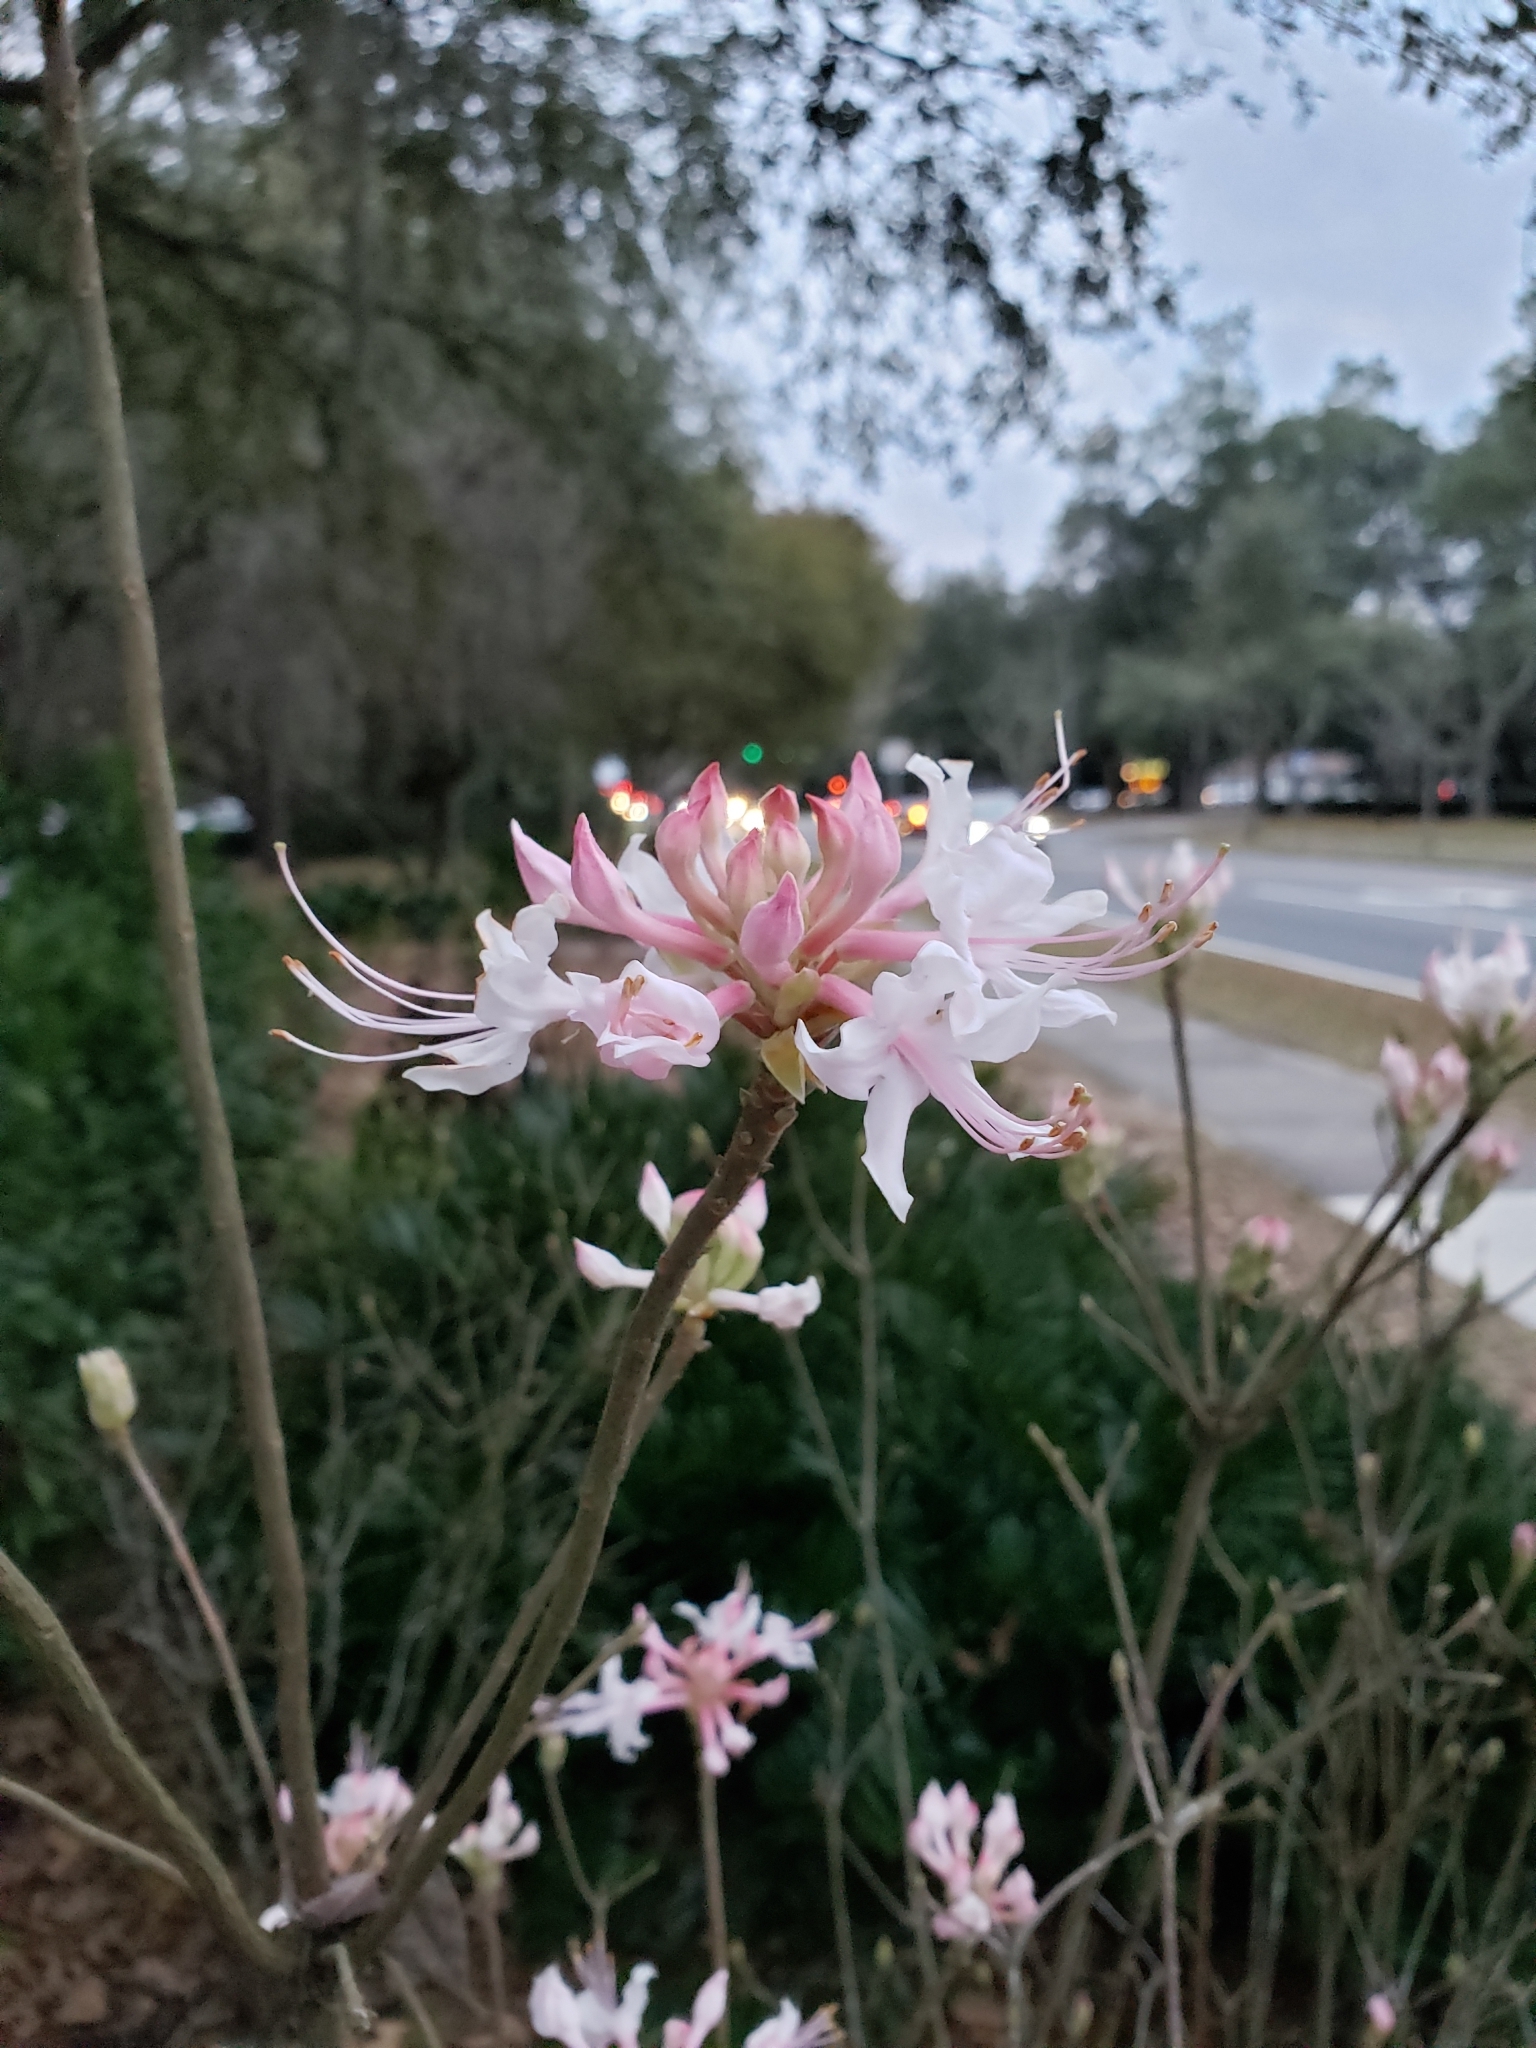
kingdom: Plantae
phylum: Tracheophyta
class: Magnoliopsida
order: Ericales
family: Ericaceae
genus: Rhododendron
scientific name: Rhododendron canescens
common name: Mountain azalea
